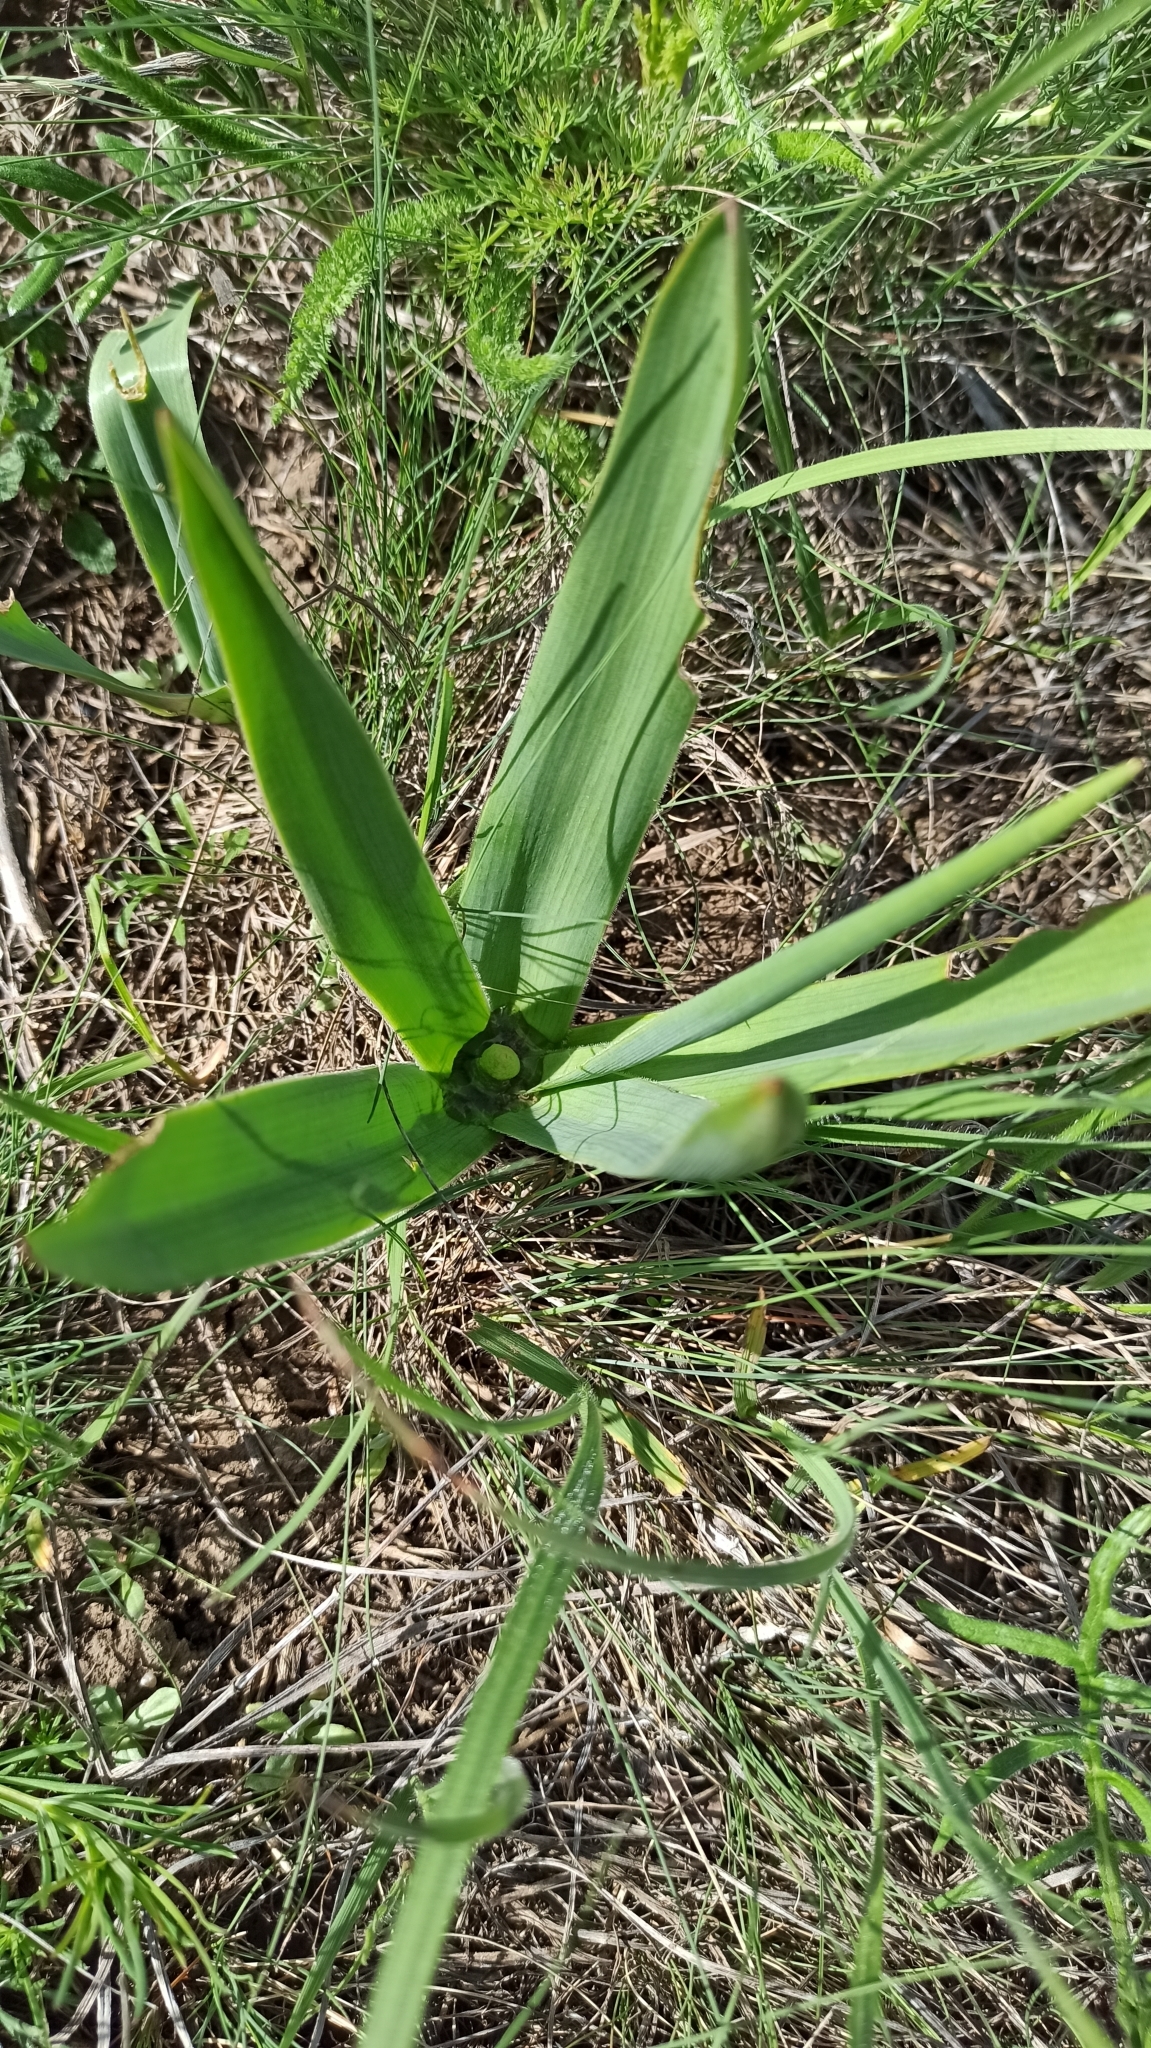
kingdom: Plantae
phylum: Tracheophyta
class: Liliopsida
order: Asparagales
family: Asparagaceae
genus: Bellevalia
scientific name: Bellevalia speciosa
